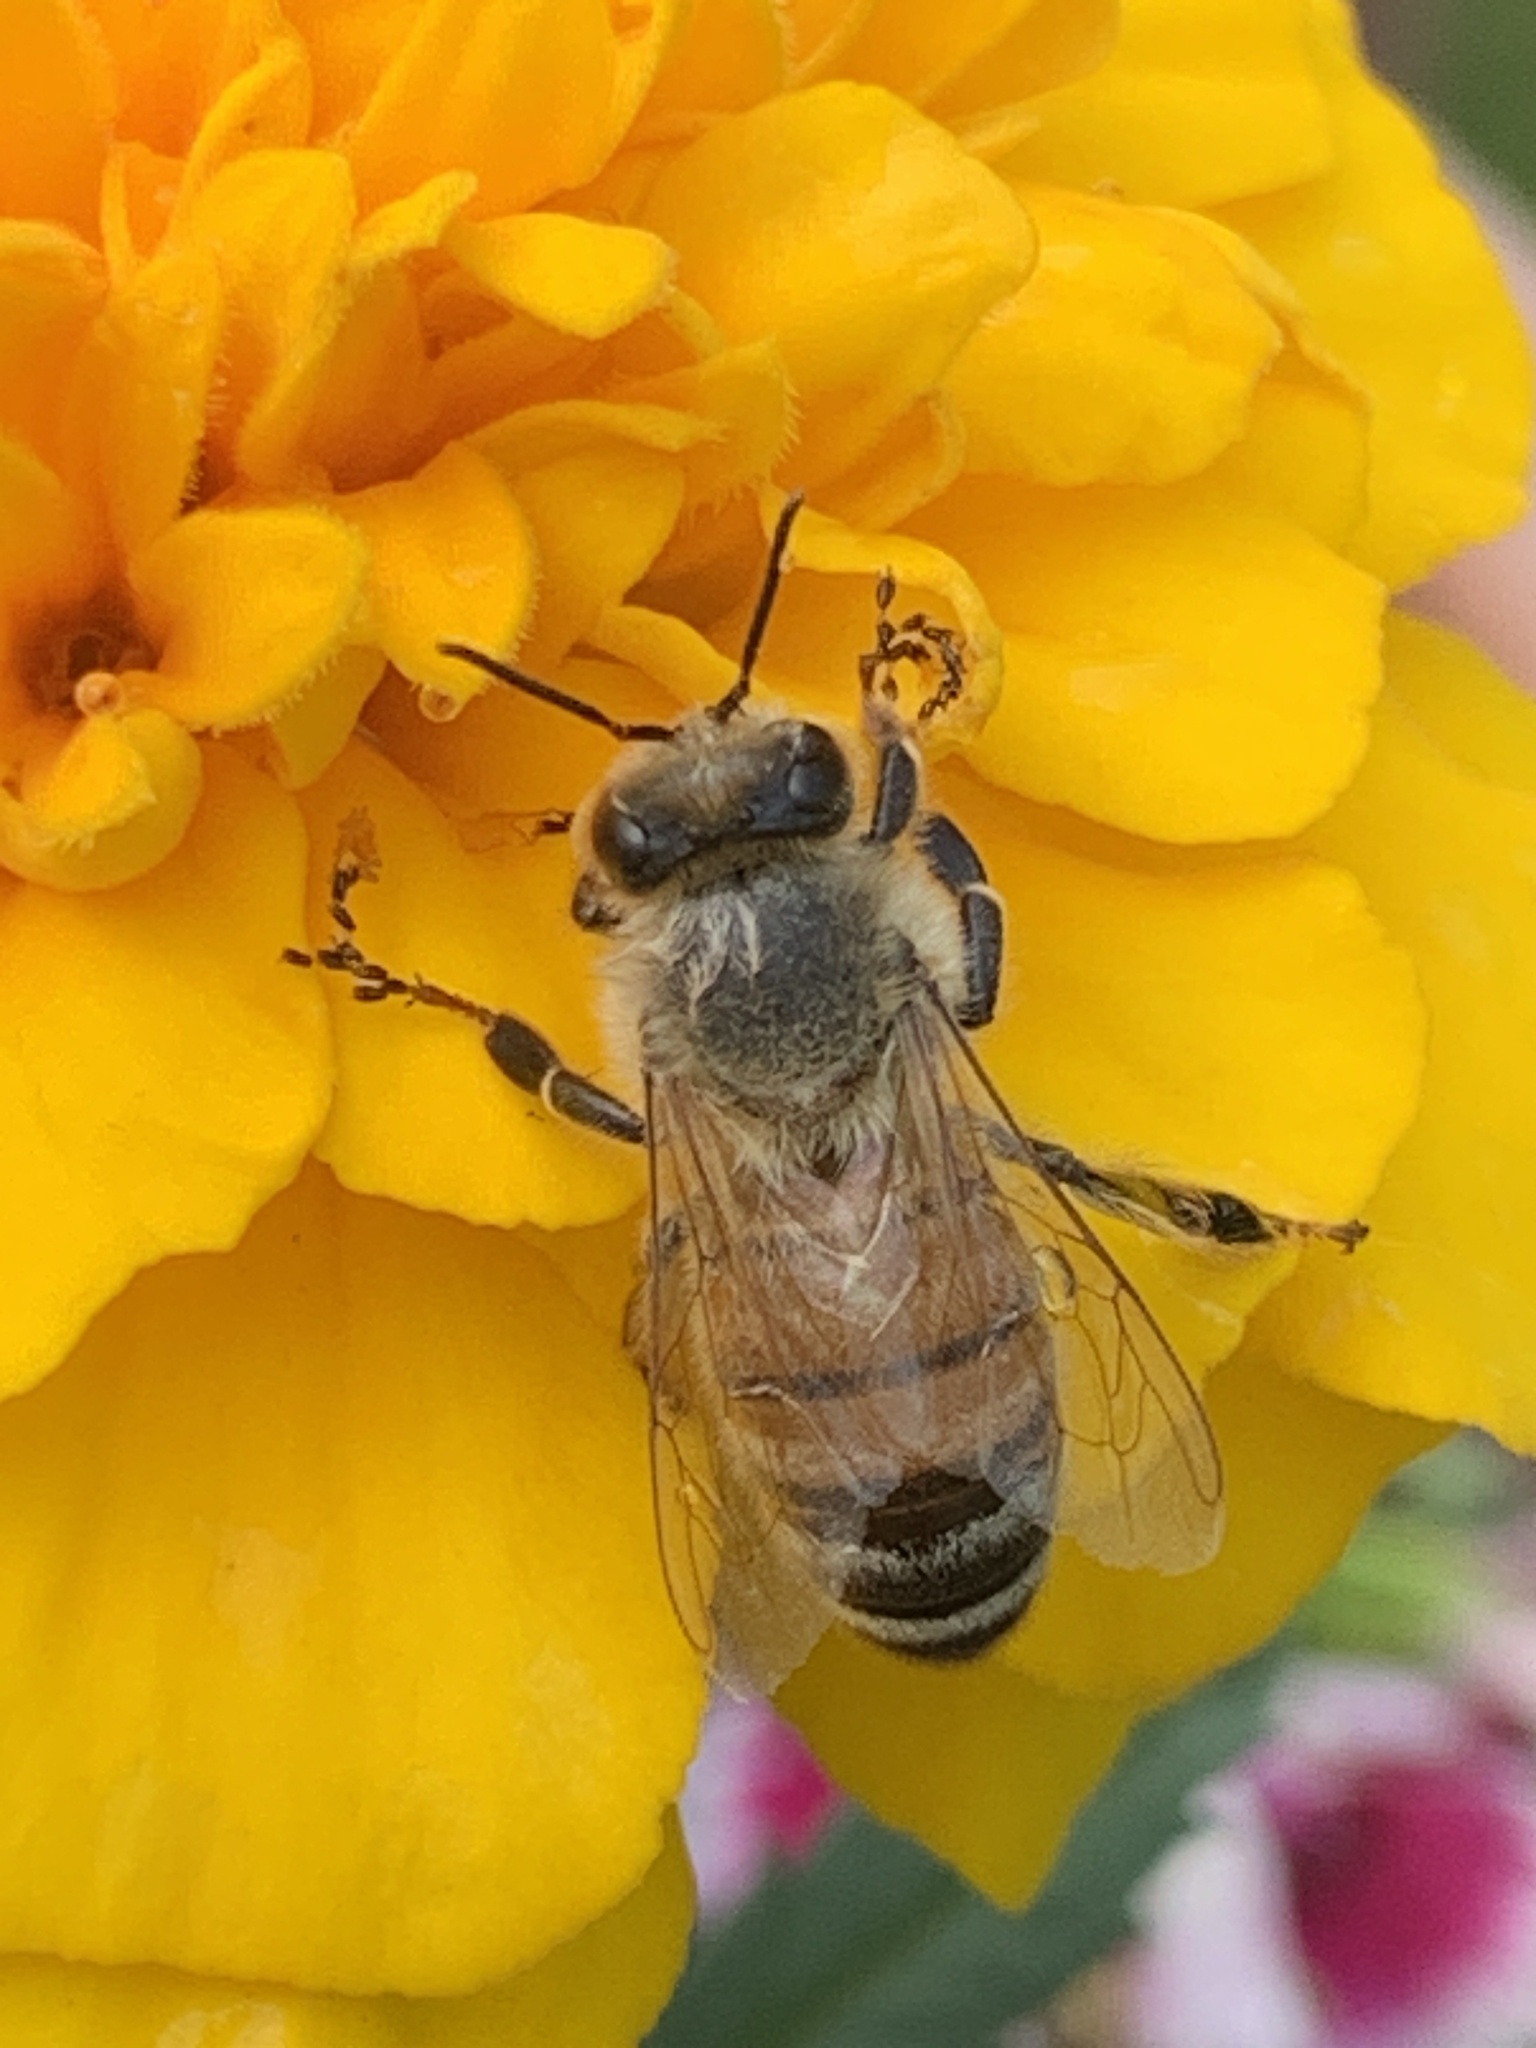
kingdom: Animalia
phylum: Arthropoda
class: Insecta
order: Hymenoptera
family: Apidae
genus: Apis
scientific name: Apis mellifera
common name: Honey bee
